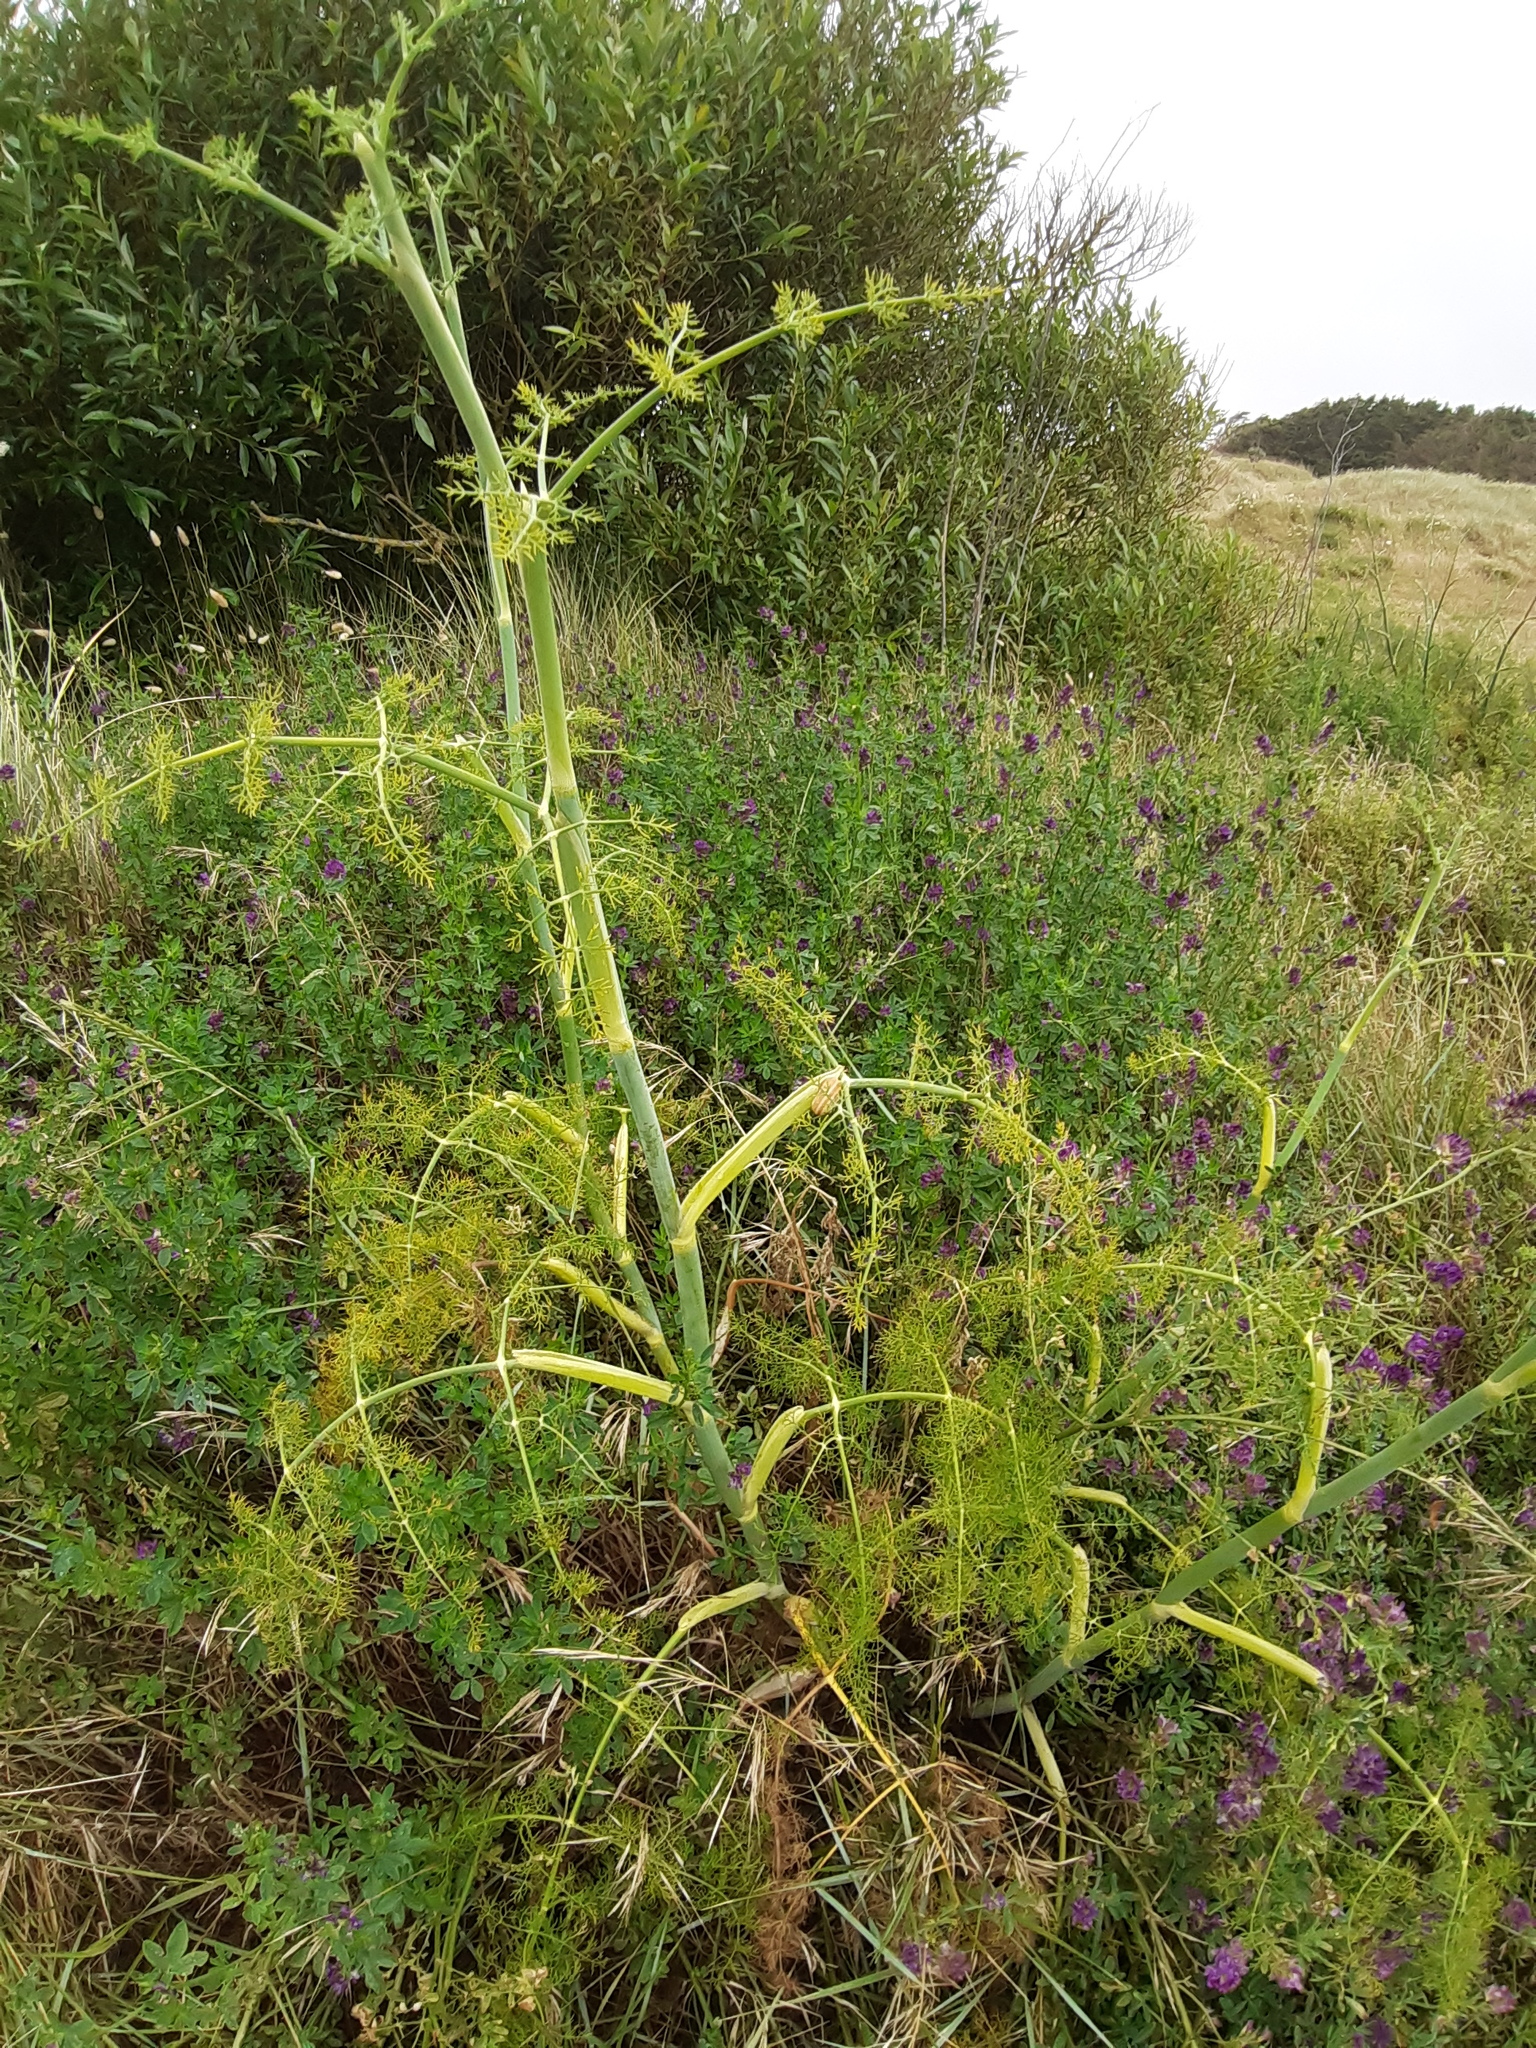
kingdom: Plantae
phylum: Tracheophyta
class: Magnoliopsida
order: Apiales
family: Apiaceae
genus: Foeniculum
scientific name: Foeniculum vulgare
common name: Fennel
